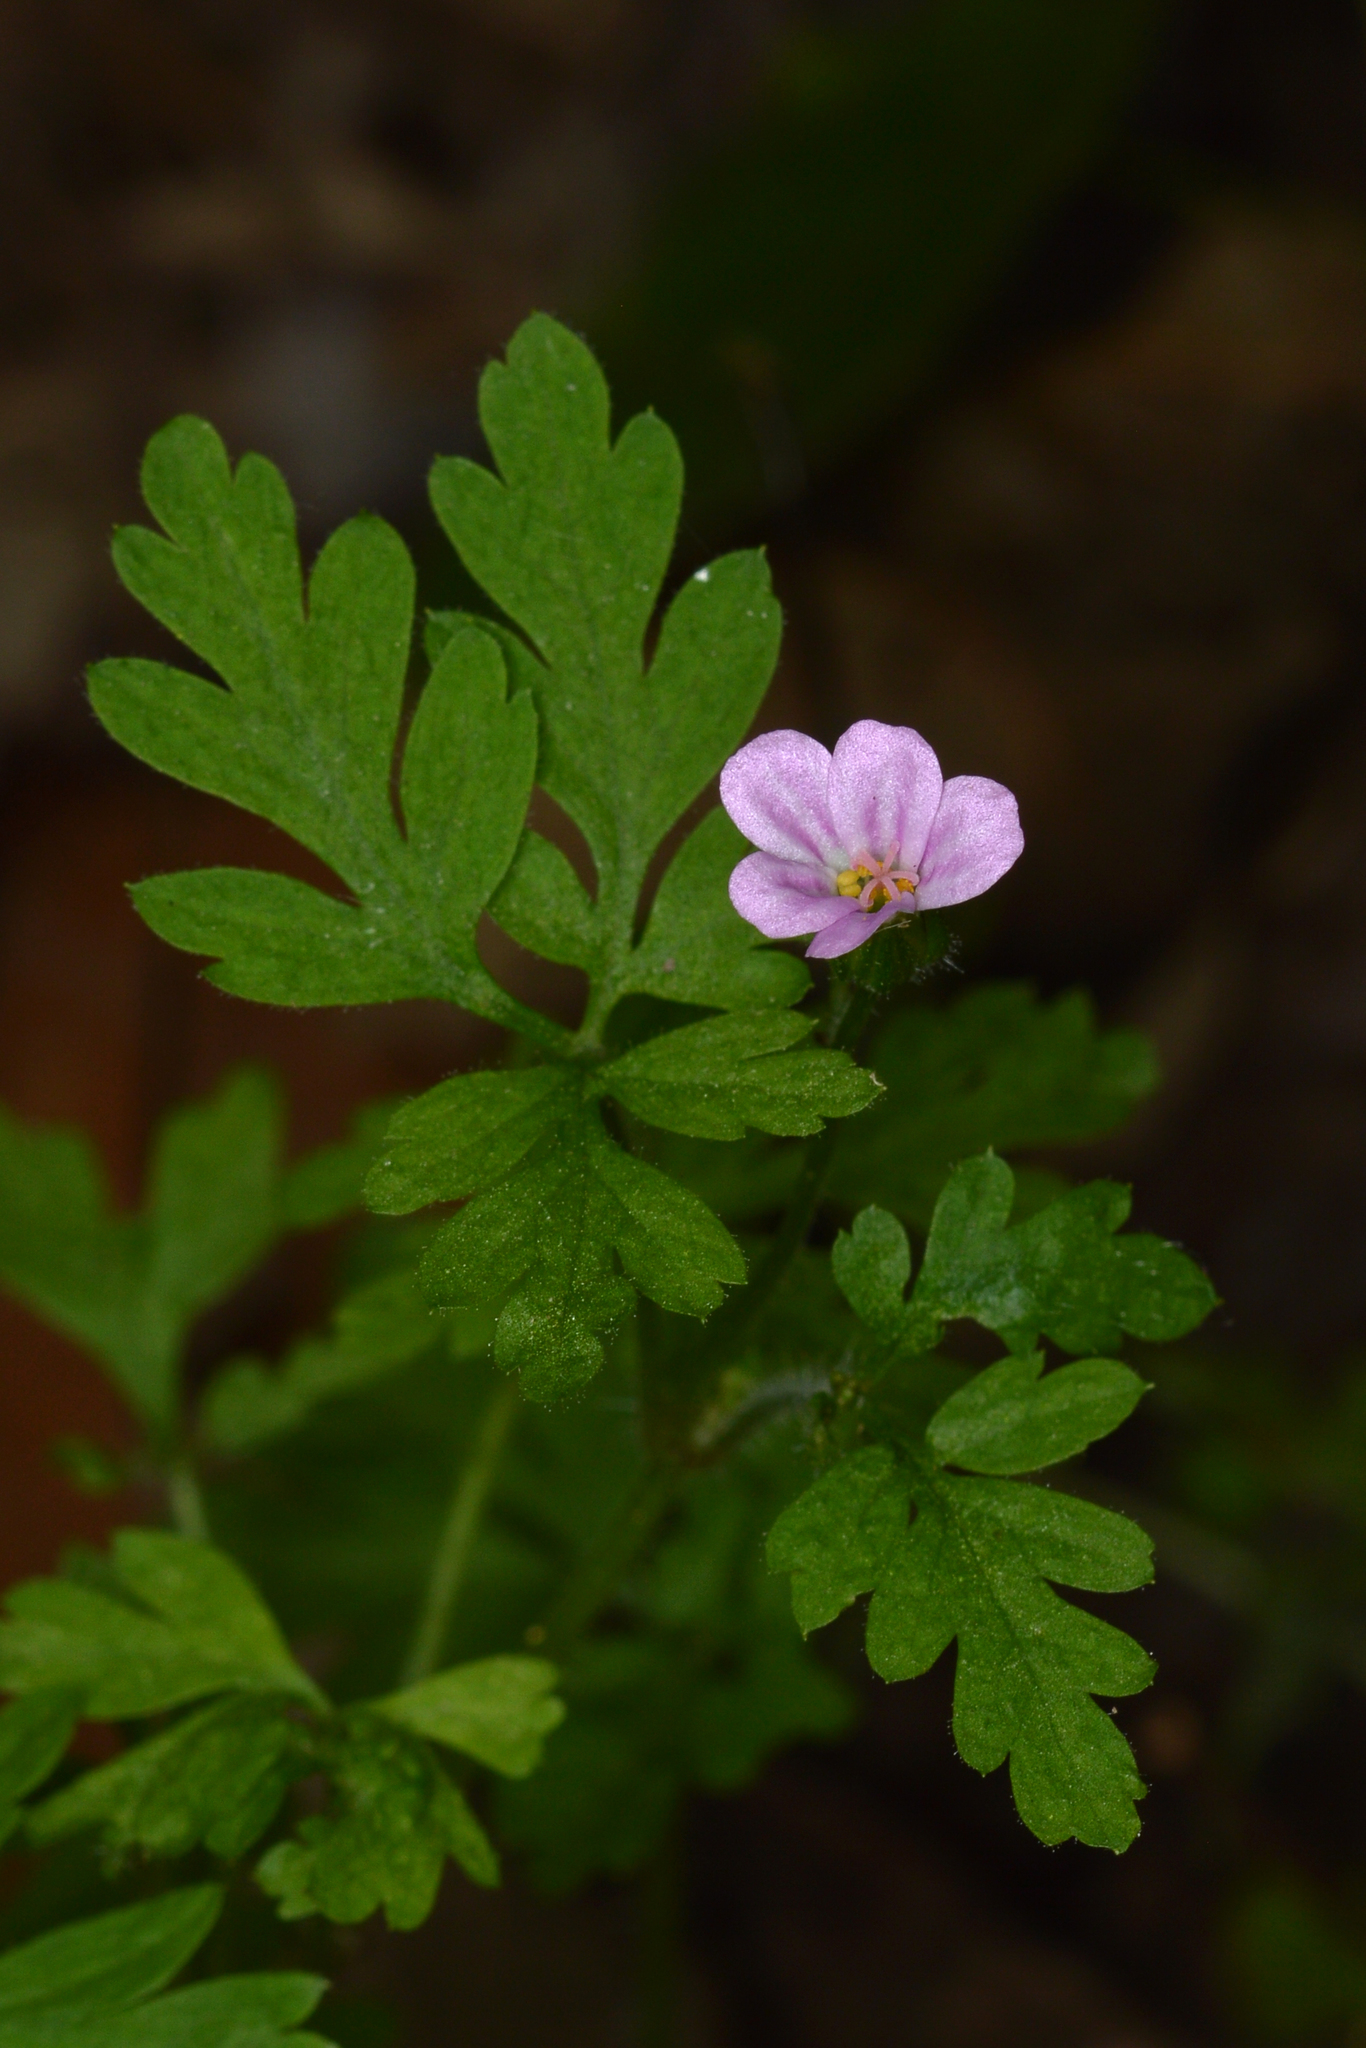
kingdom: Plantae
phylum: Tracheophyta
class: Magnoliopsida
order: Geraniales
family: Geraniaceae
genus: Geranium
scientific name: Geranium robertianum
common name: Herb-robert
